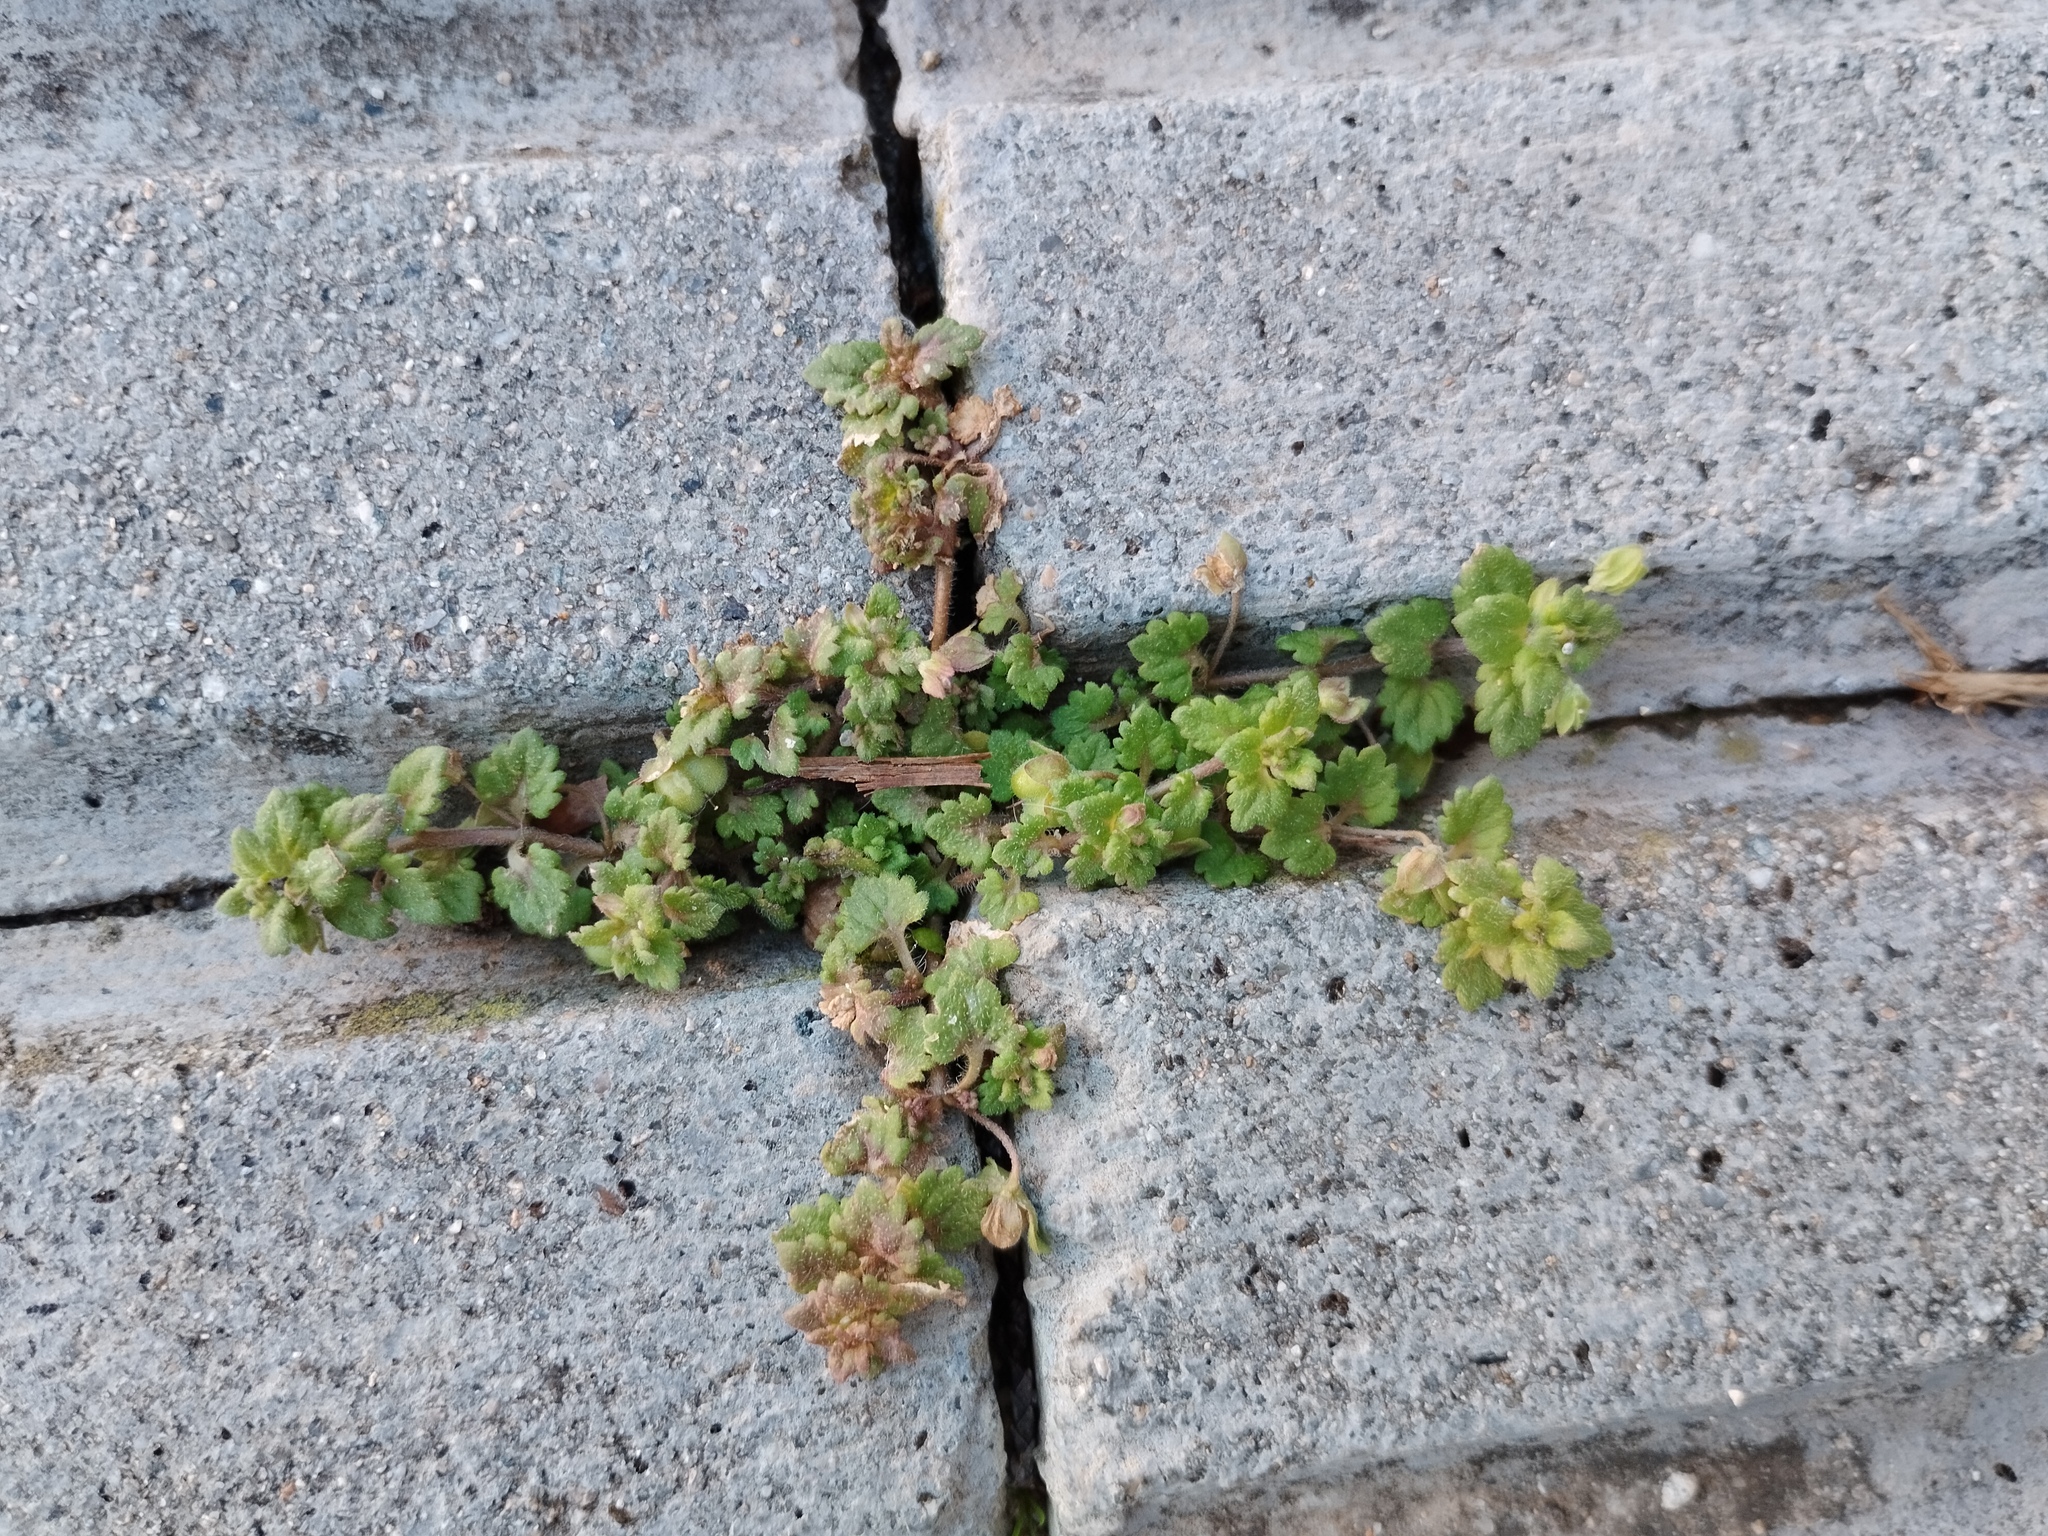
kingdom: Plantae
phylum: Tracheophyta
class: Magnoliopsida
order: Lamiales
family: Plantaginaceae
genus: Veronica
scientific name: Veronica polita
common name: Grey field-speedwell
